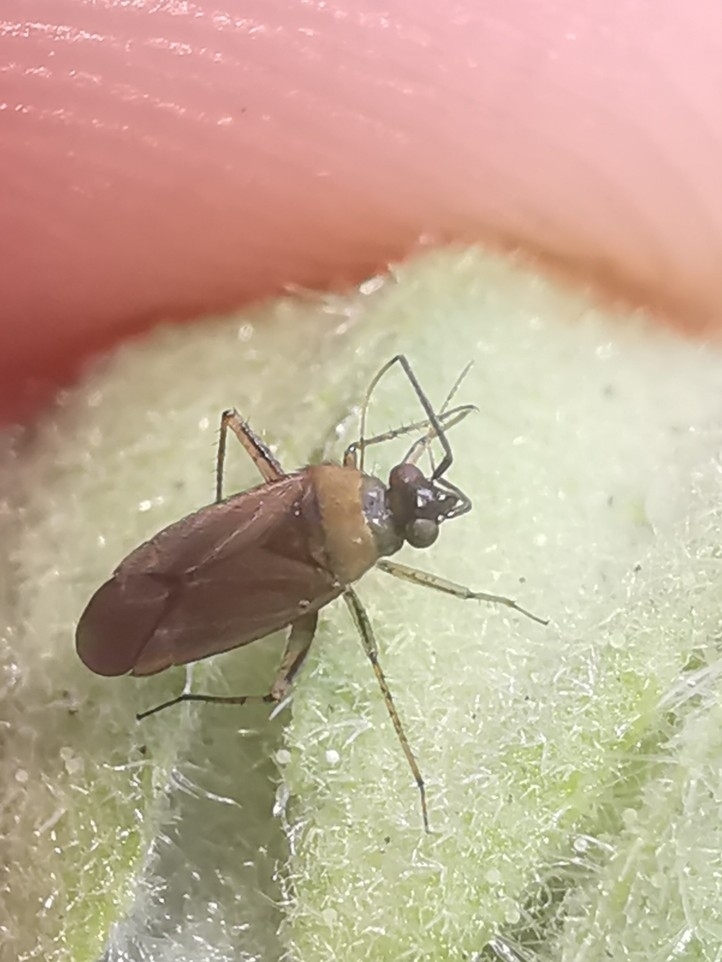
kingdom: Animalia
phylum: Arthropoda
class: Insecta
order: Hemiptera
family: Miridae
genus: Plagiognathus
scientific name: Plagiognathus arbustorum
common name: Plant bug
